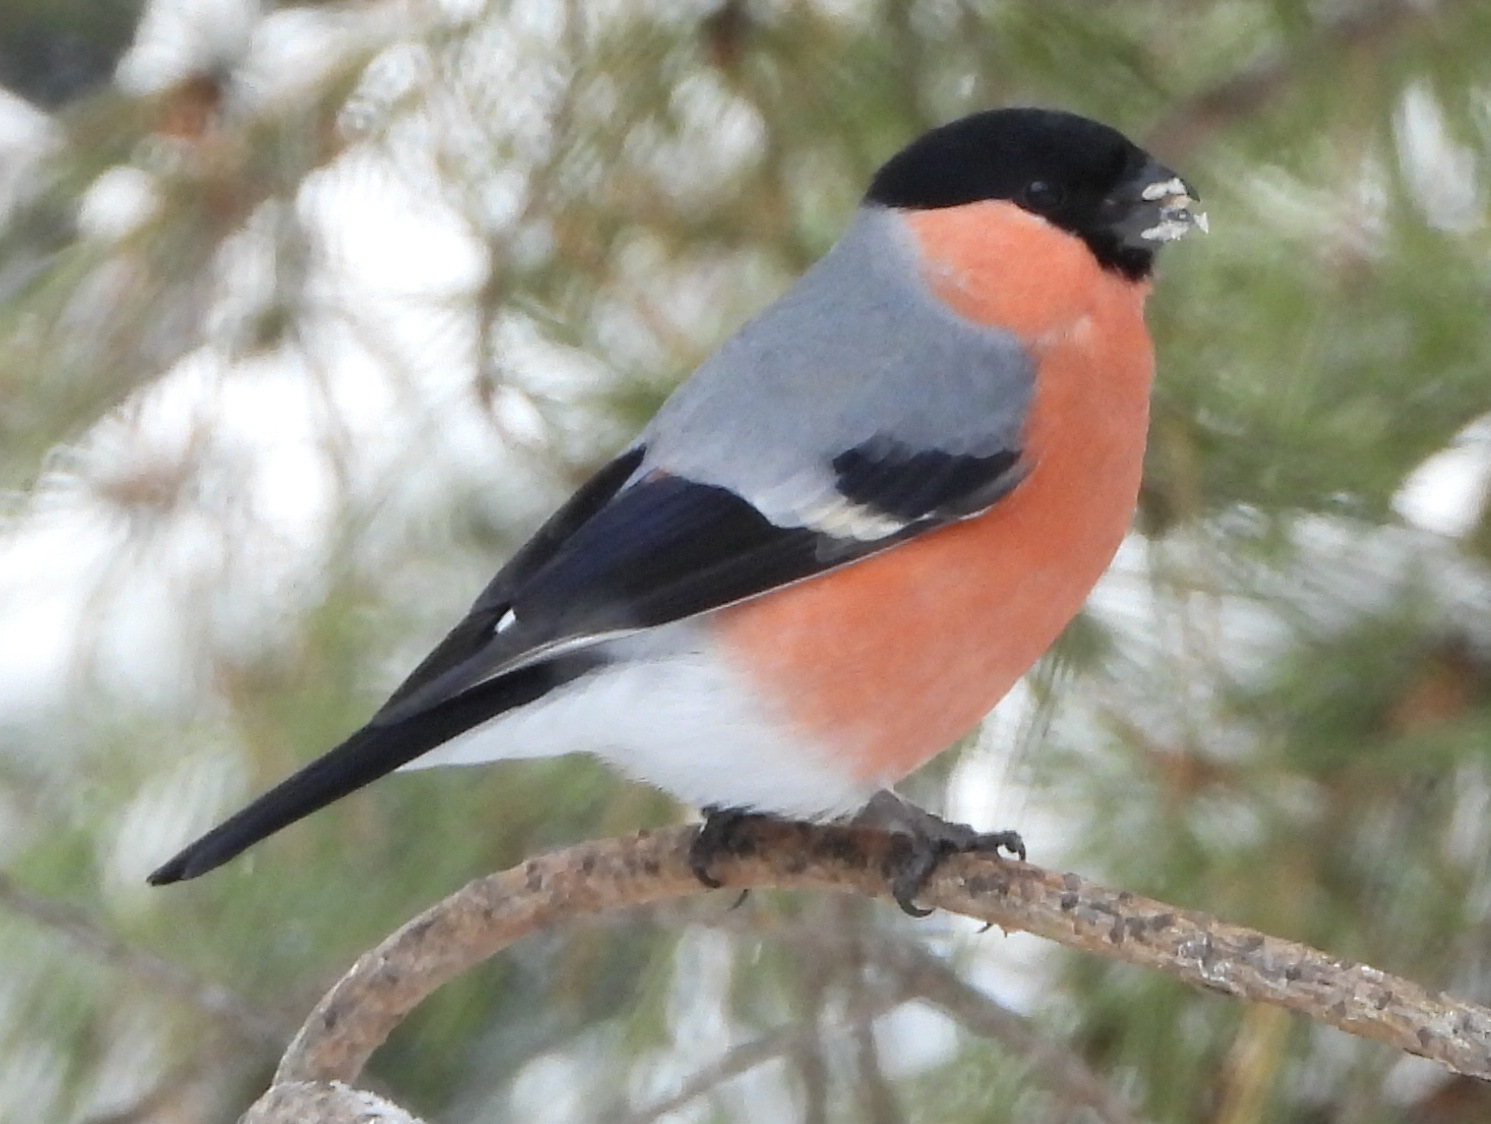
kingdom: Animalia
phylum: Chordata
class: Aves
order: Passeriformes
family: Fringillidae
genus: Pyrrhula
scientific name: Pyrrhula pyrrhula
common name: Eurasian bullfinch
